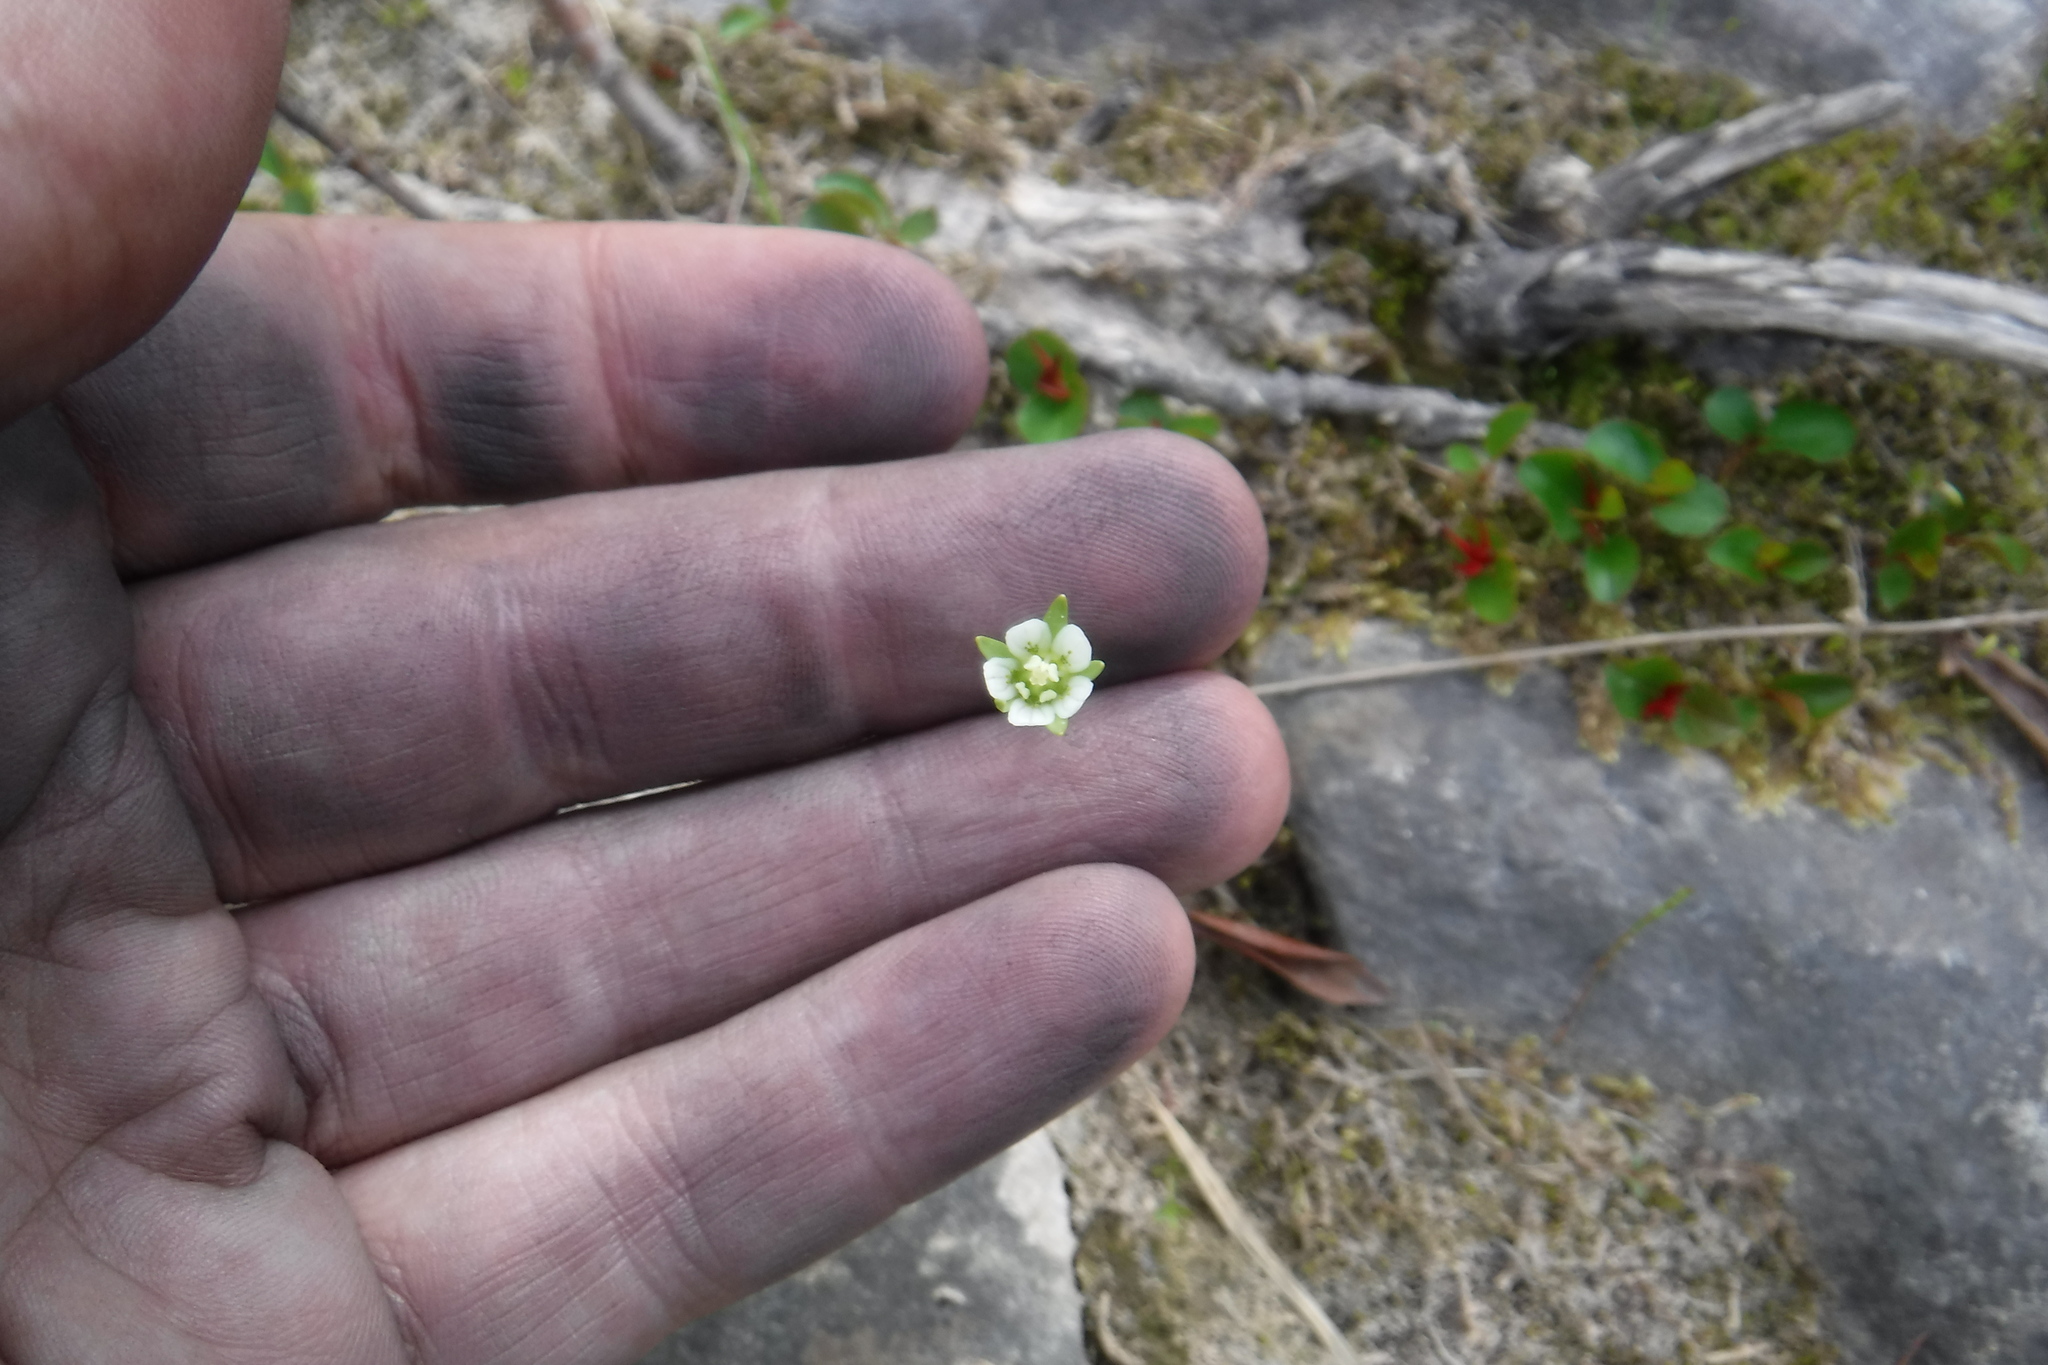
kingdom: Plantae
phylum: Tracheophyta
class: Magnoliopsida
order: Celastrales
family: Parnassiaceae
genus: Parnassia
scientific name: Parnassia kotzebuei
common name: Kotzebue's grass-of-parnassus
